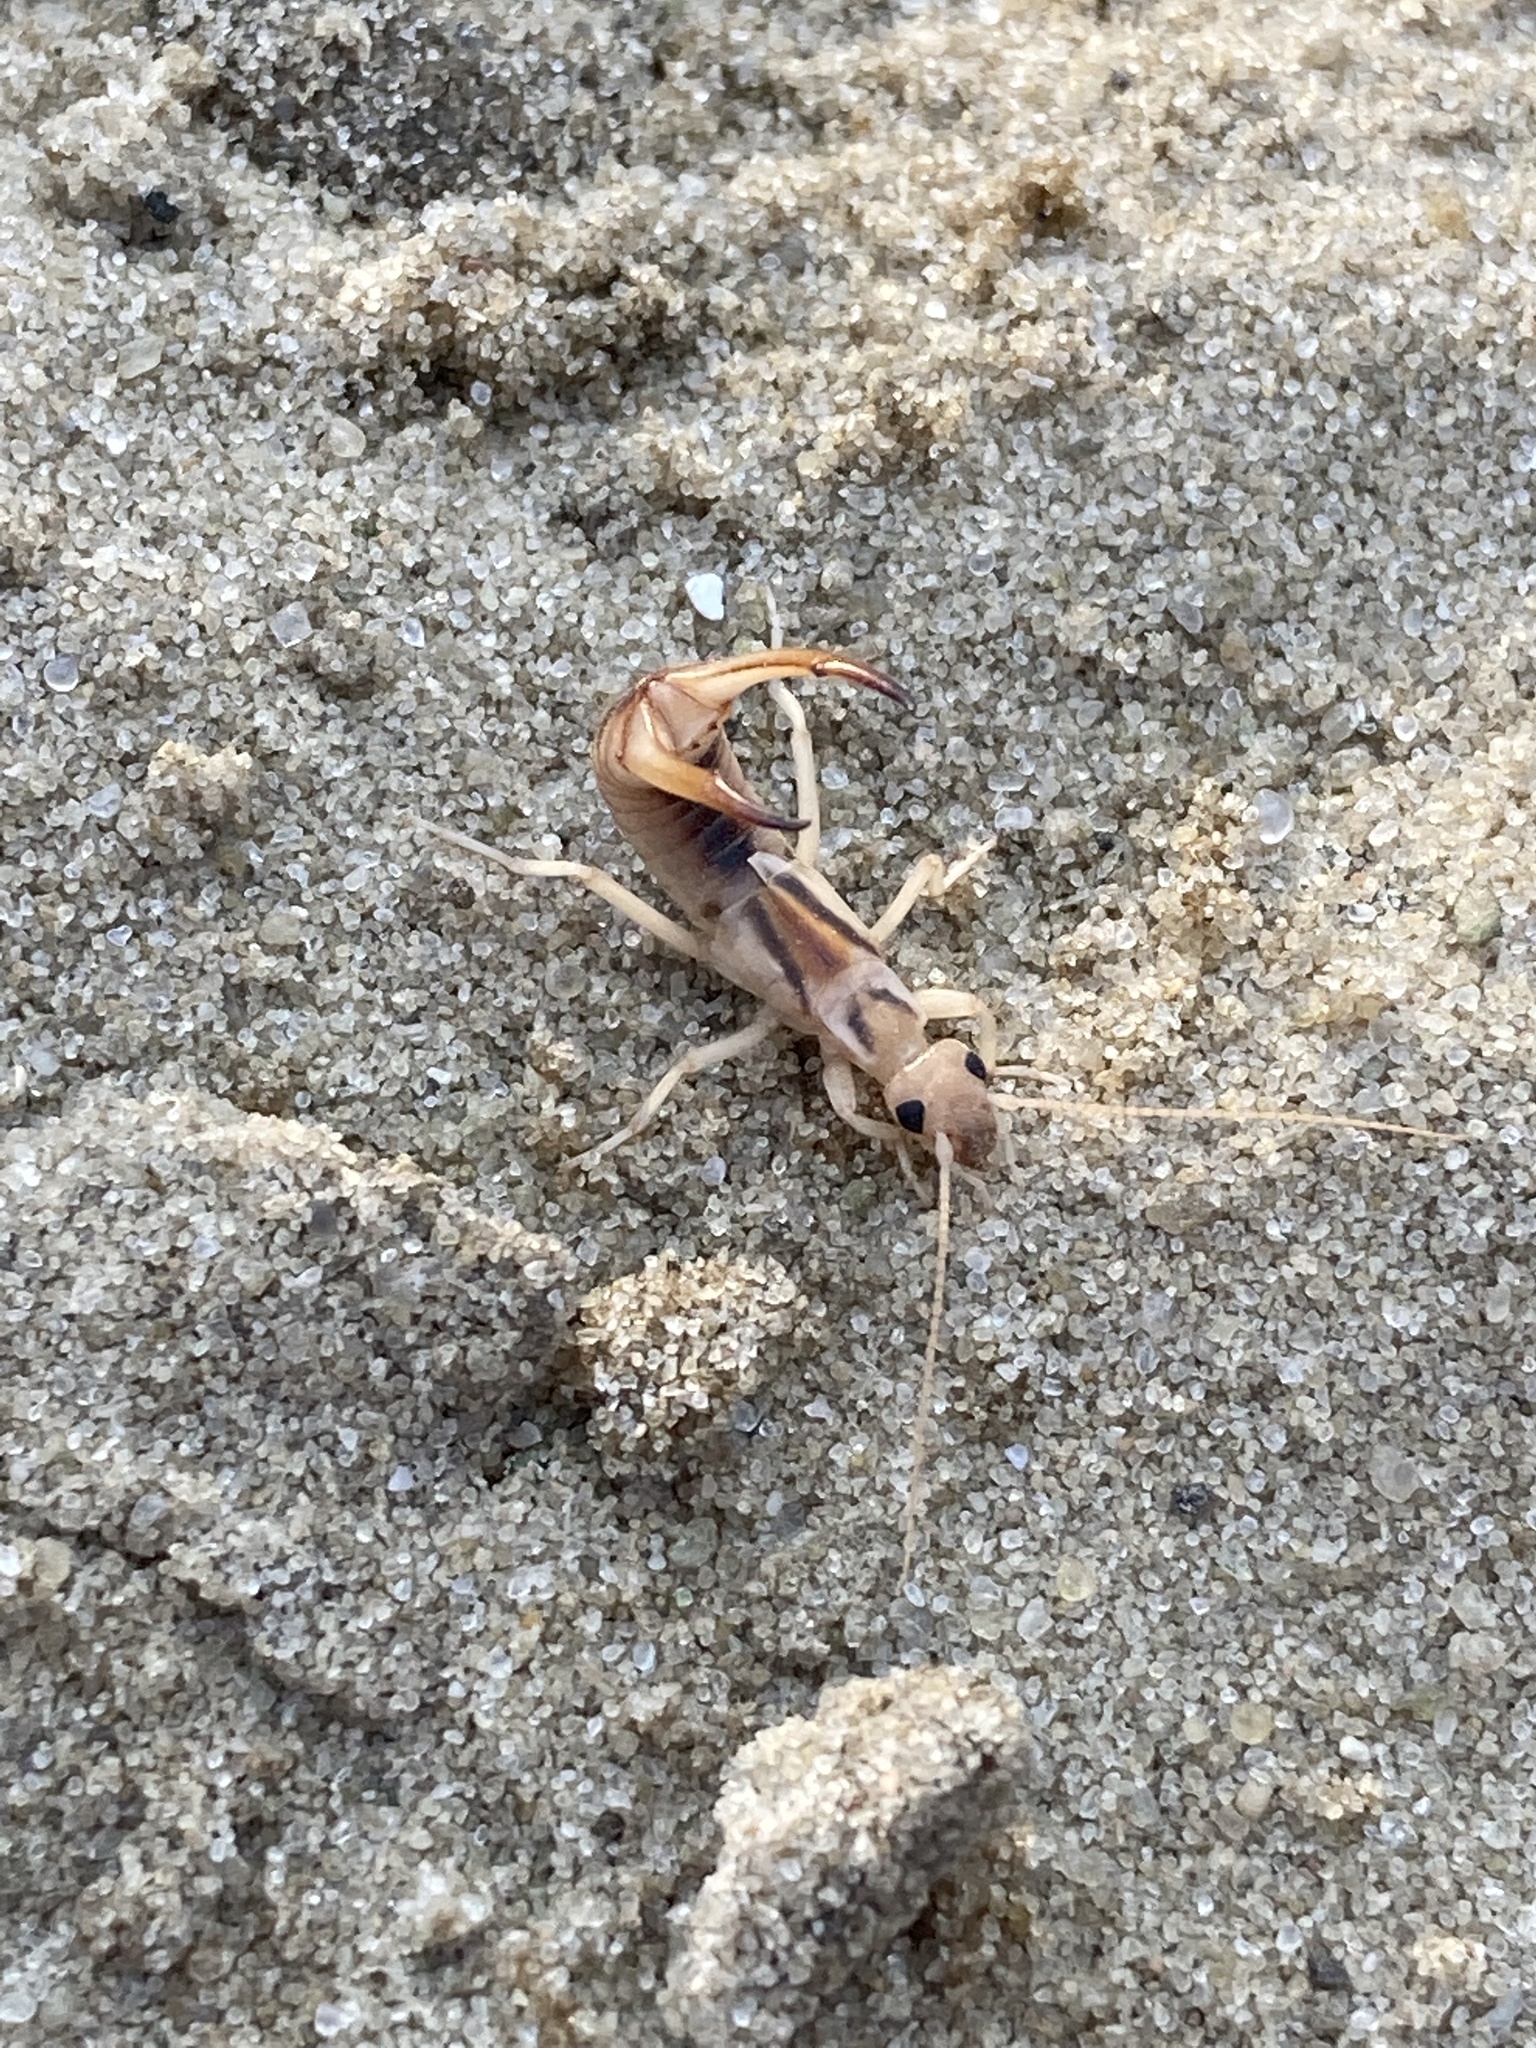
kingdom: Animalia
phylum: Arthropoda
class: Insecta
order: Dermaptera
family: Labiduridae
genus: Labidura
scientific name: Labidura riparia
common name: Striped earwig
